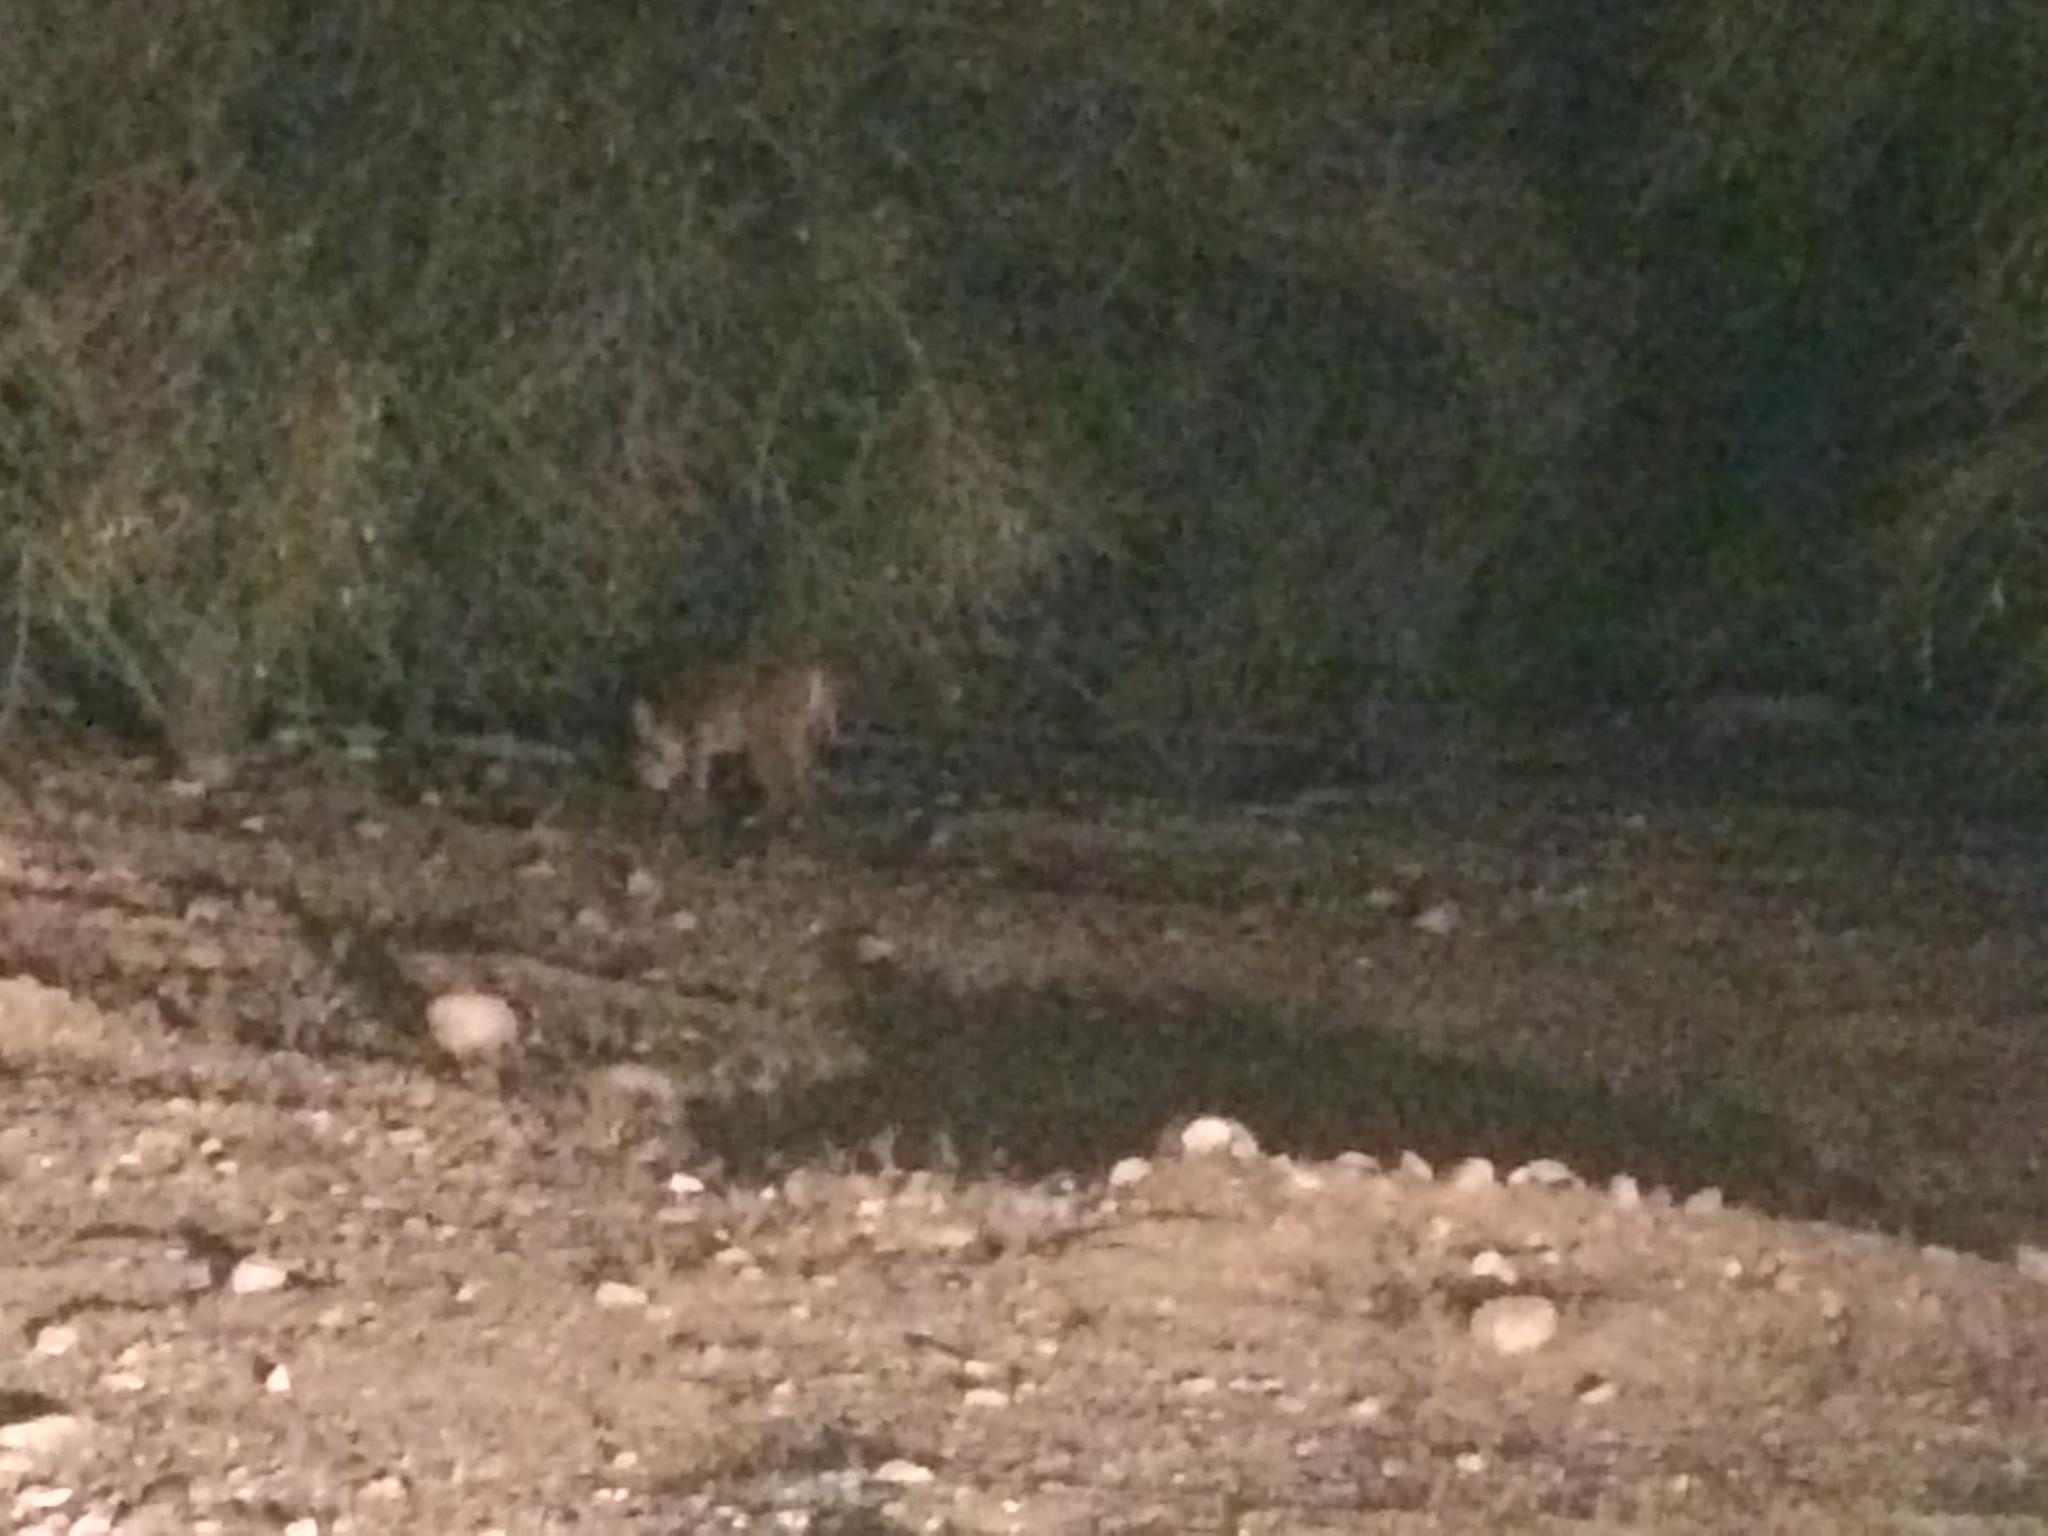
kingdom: Animalia
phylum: Chordata
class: Mammalia
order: Carnivora
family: Felidae
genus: Lynx
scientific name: Lynx rufus
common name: Bobcat
